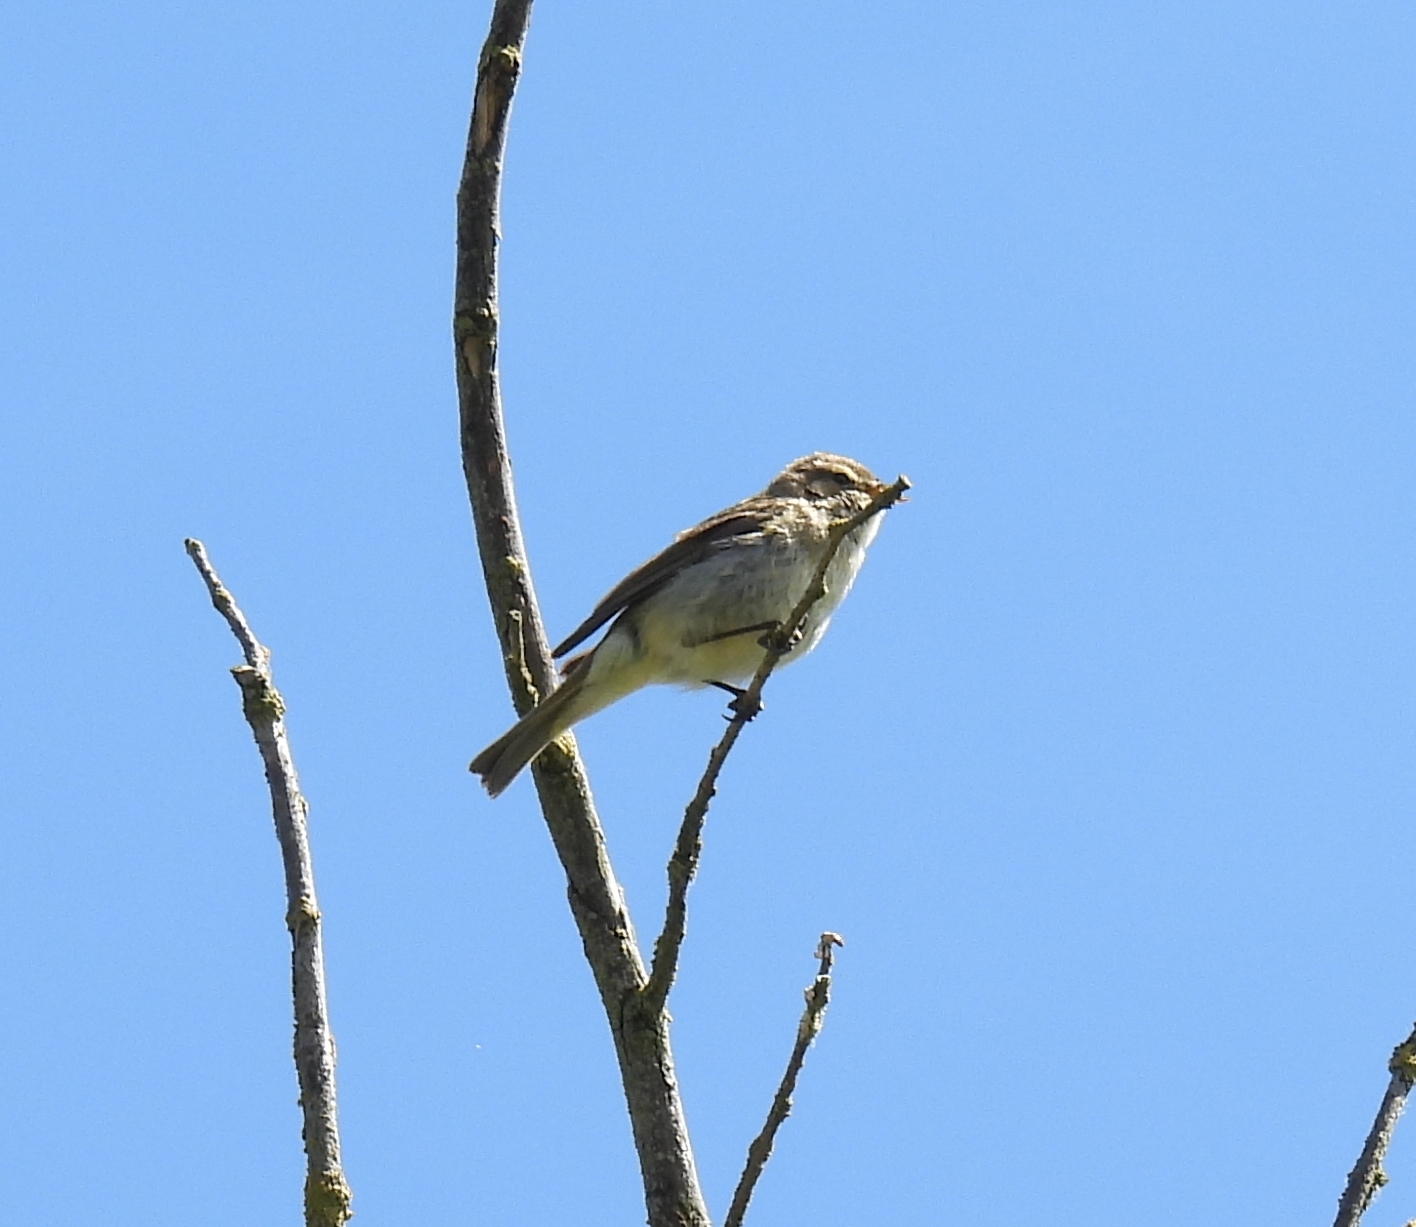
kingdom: Animalia
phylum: Chordata
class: Aves
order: Passeriformes
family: Phylloscopidae
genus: Phylloscopus
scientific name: Phylloscopus collybita
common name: Common chiffchaff
